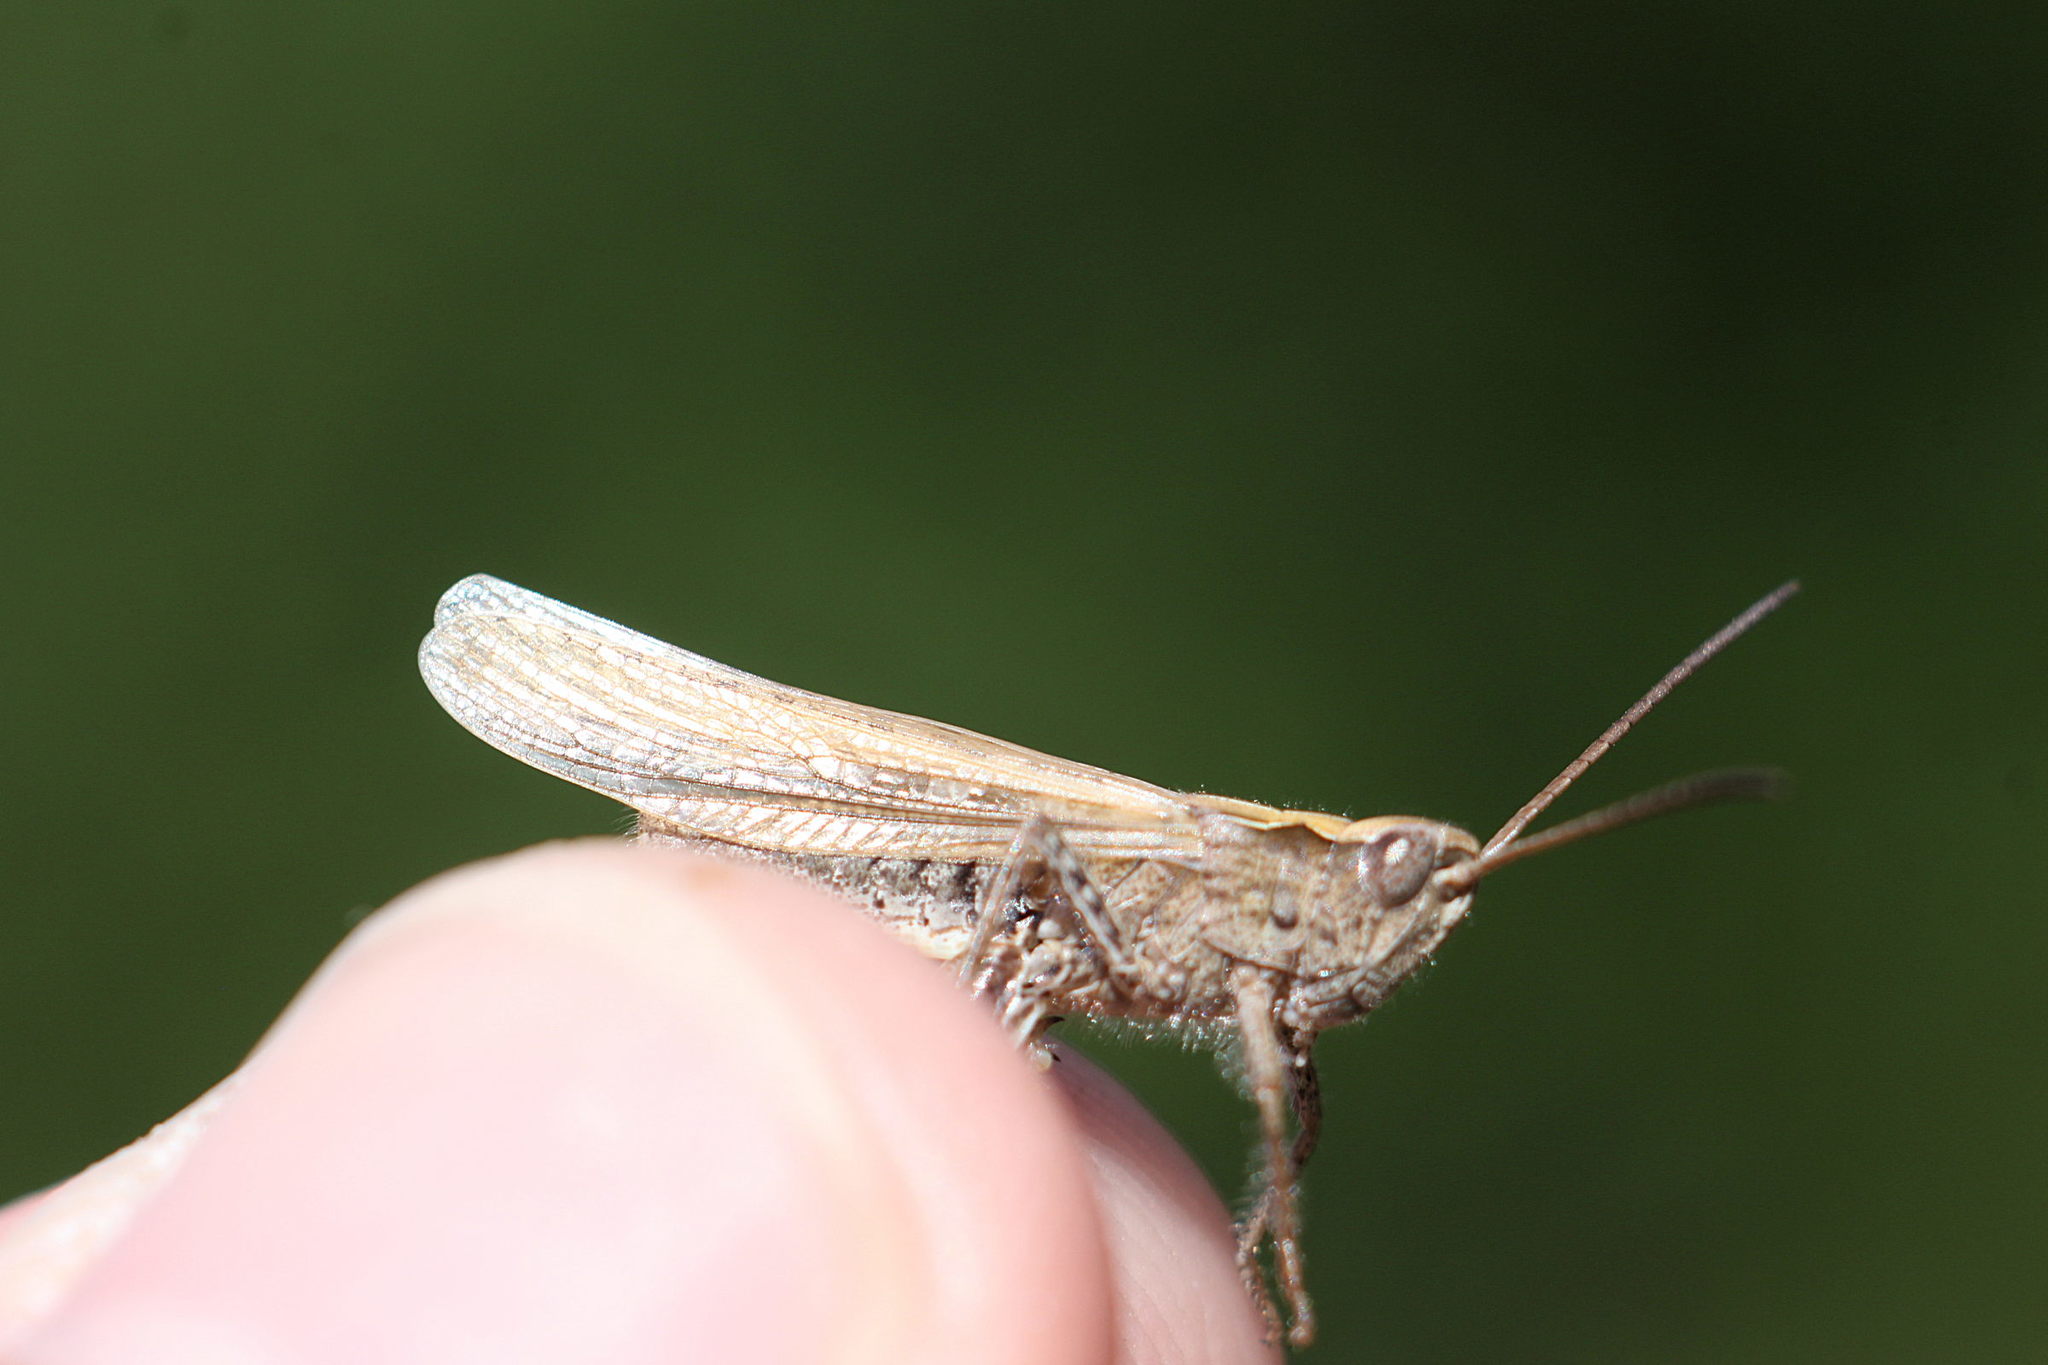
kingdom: Animalia
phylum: Arthropoda
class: Insecta
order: Orthoptera
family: Acrididae
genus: Chorthippus
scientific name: Chorthippus brunneus
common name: Field grasshopper
